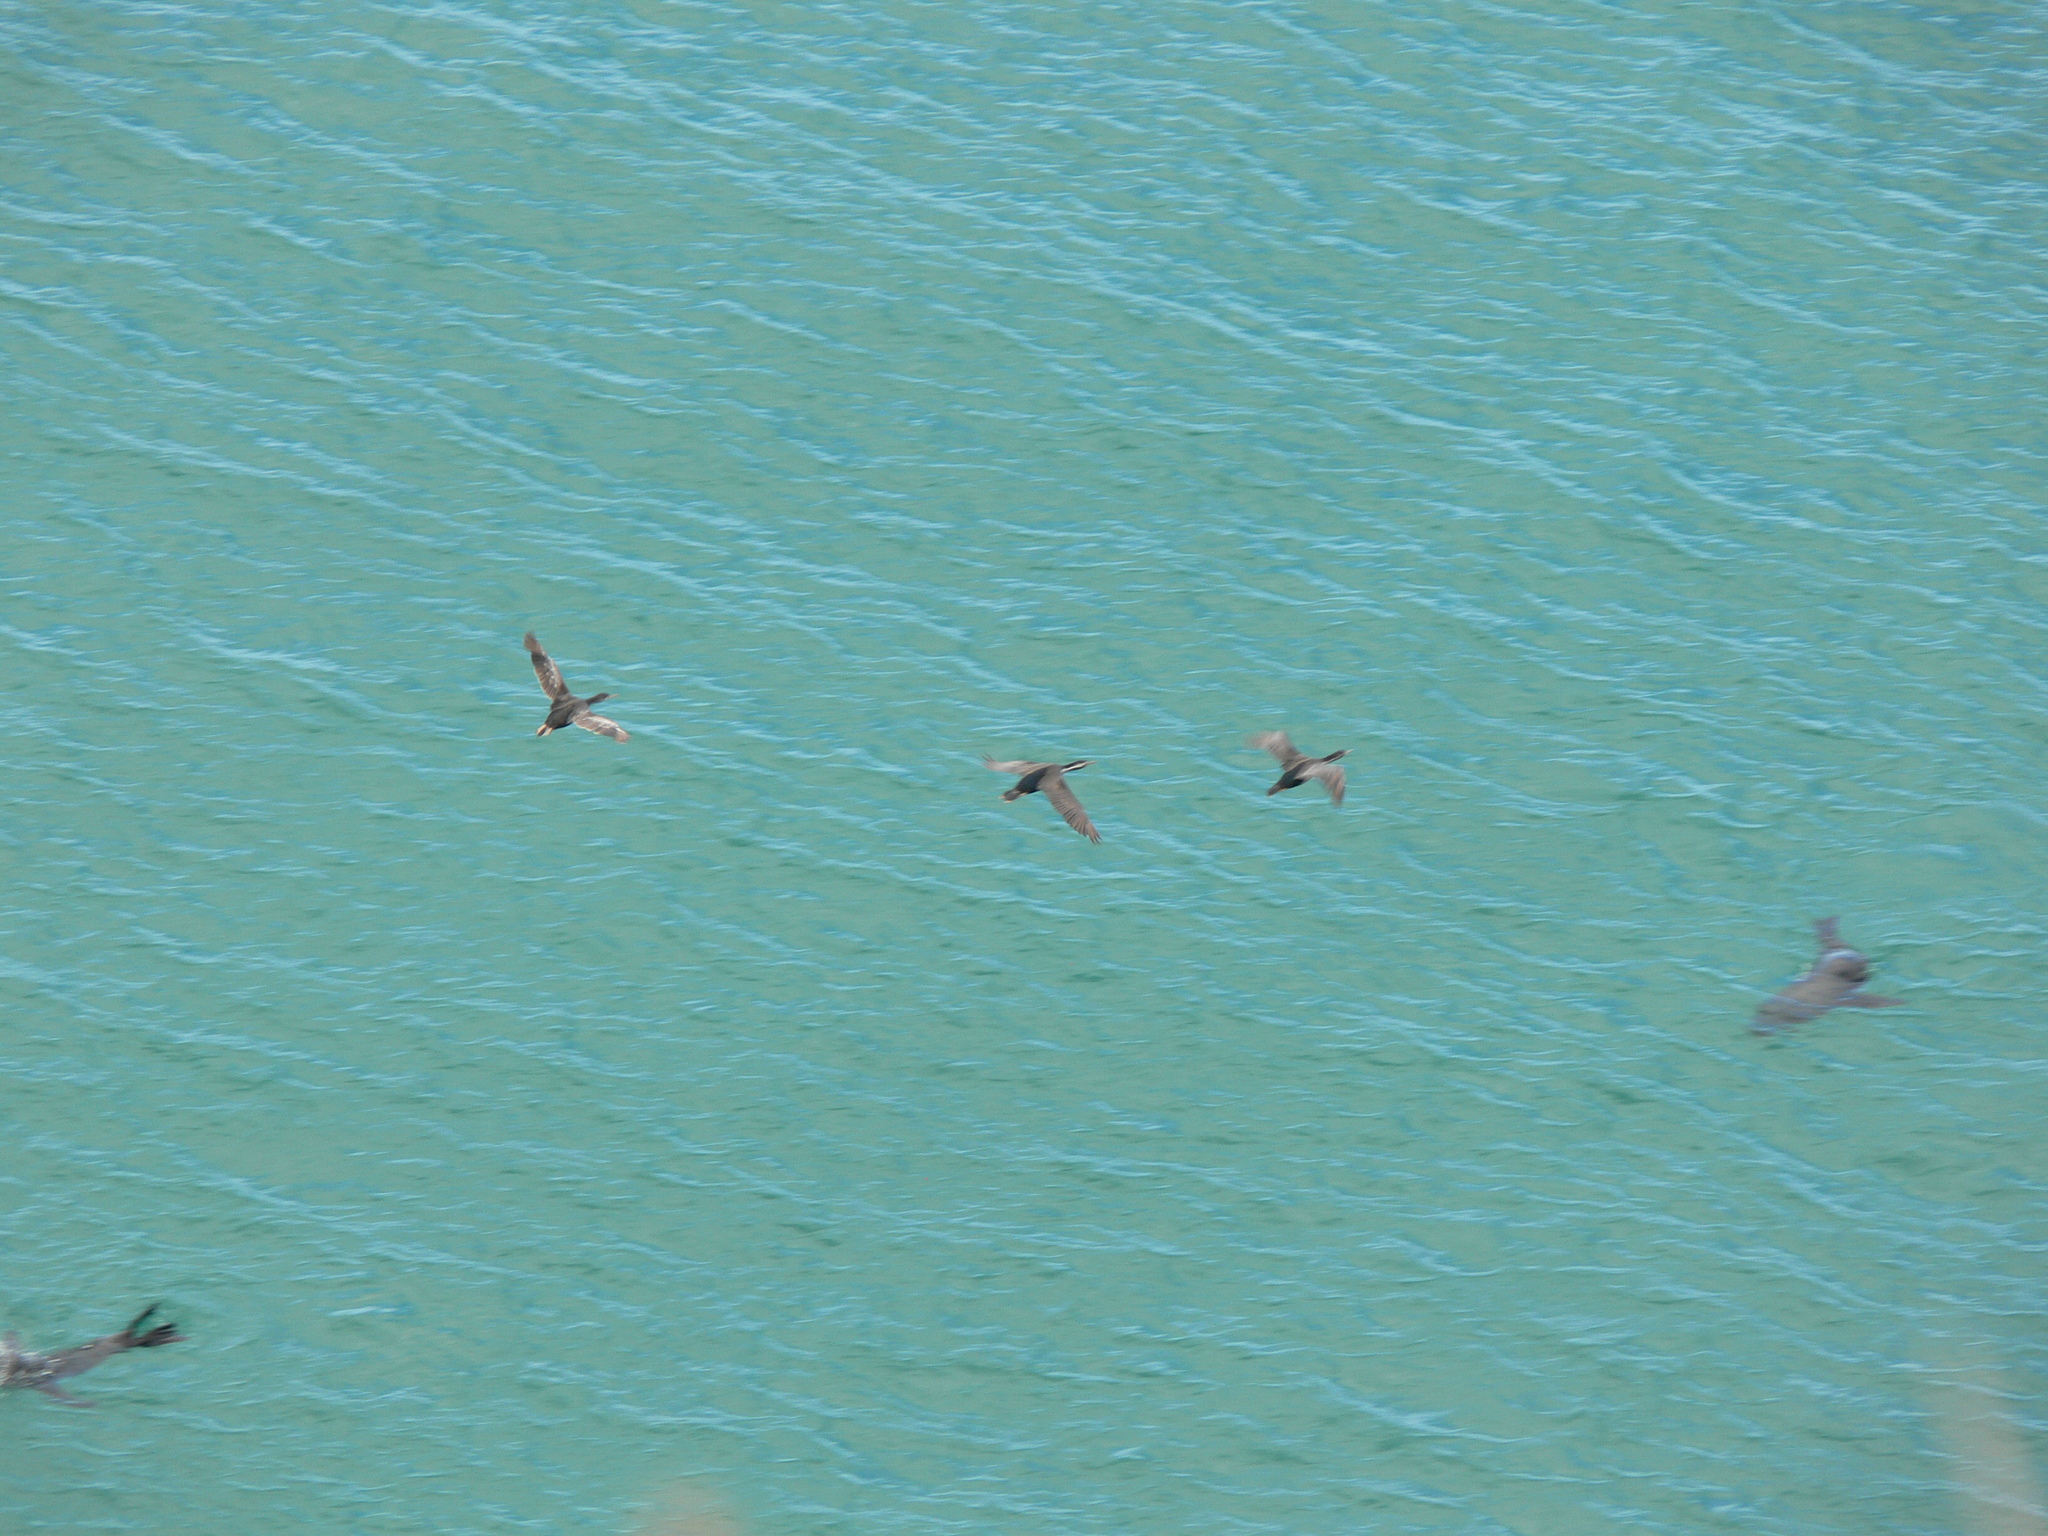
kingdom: Animalia
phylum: Chordata
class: Aves
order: Suliformes
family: Phalacrocoracidae
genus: Phalacrocorax
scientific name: Phalacrocorax punctatus
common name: Spotted shag
